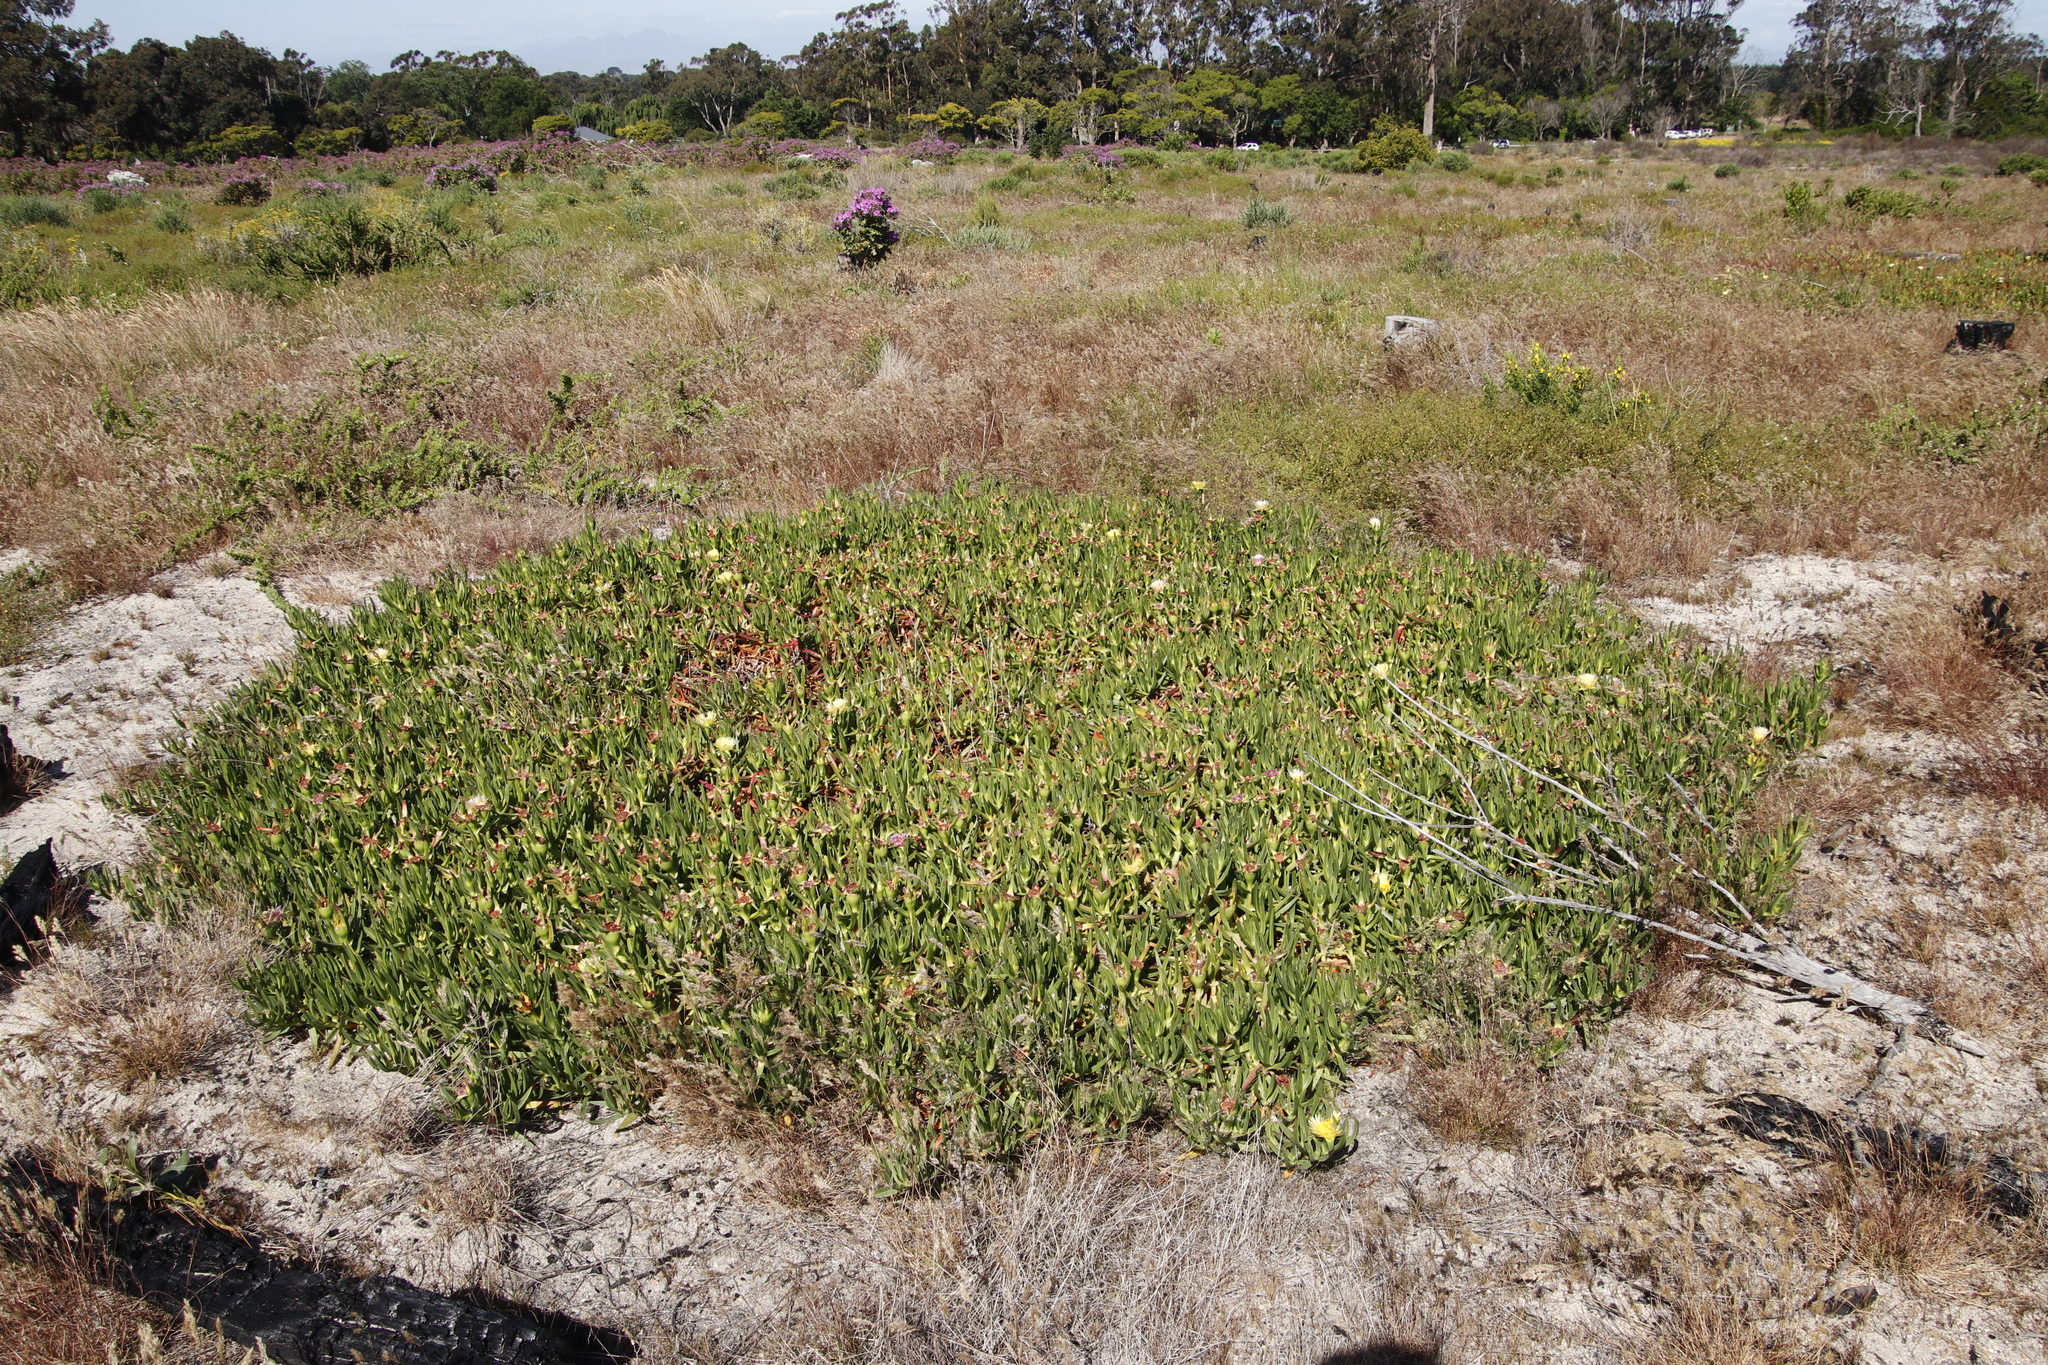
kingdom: Plantae
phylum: Tracheophyta
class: Magnoliopsida
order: Caryophyllales
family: Aizoaceae
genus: Carpobrotus
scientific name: Carpobrotus edulis
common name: Hottentot-fig
